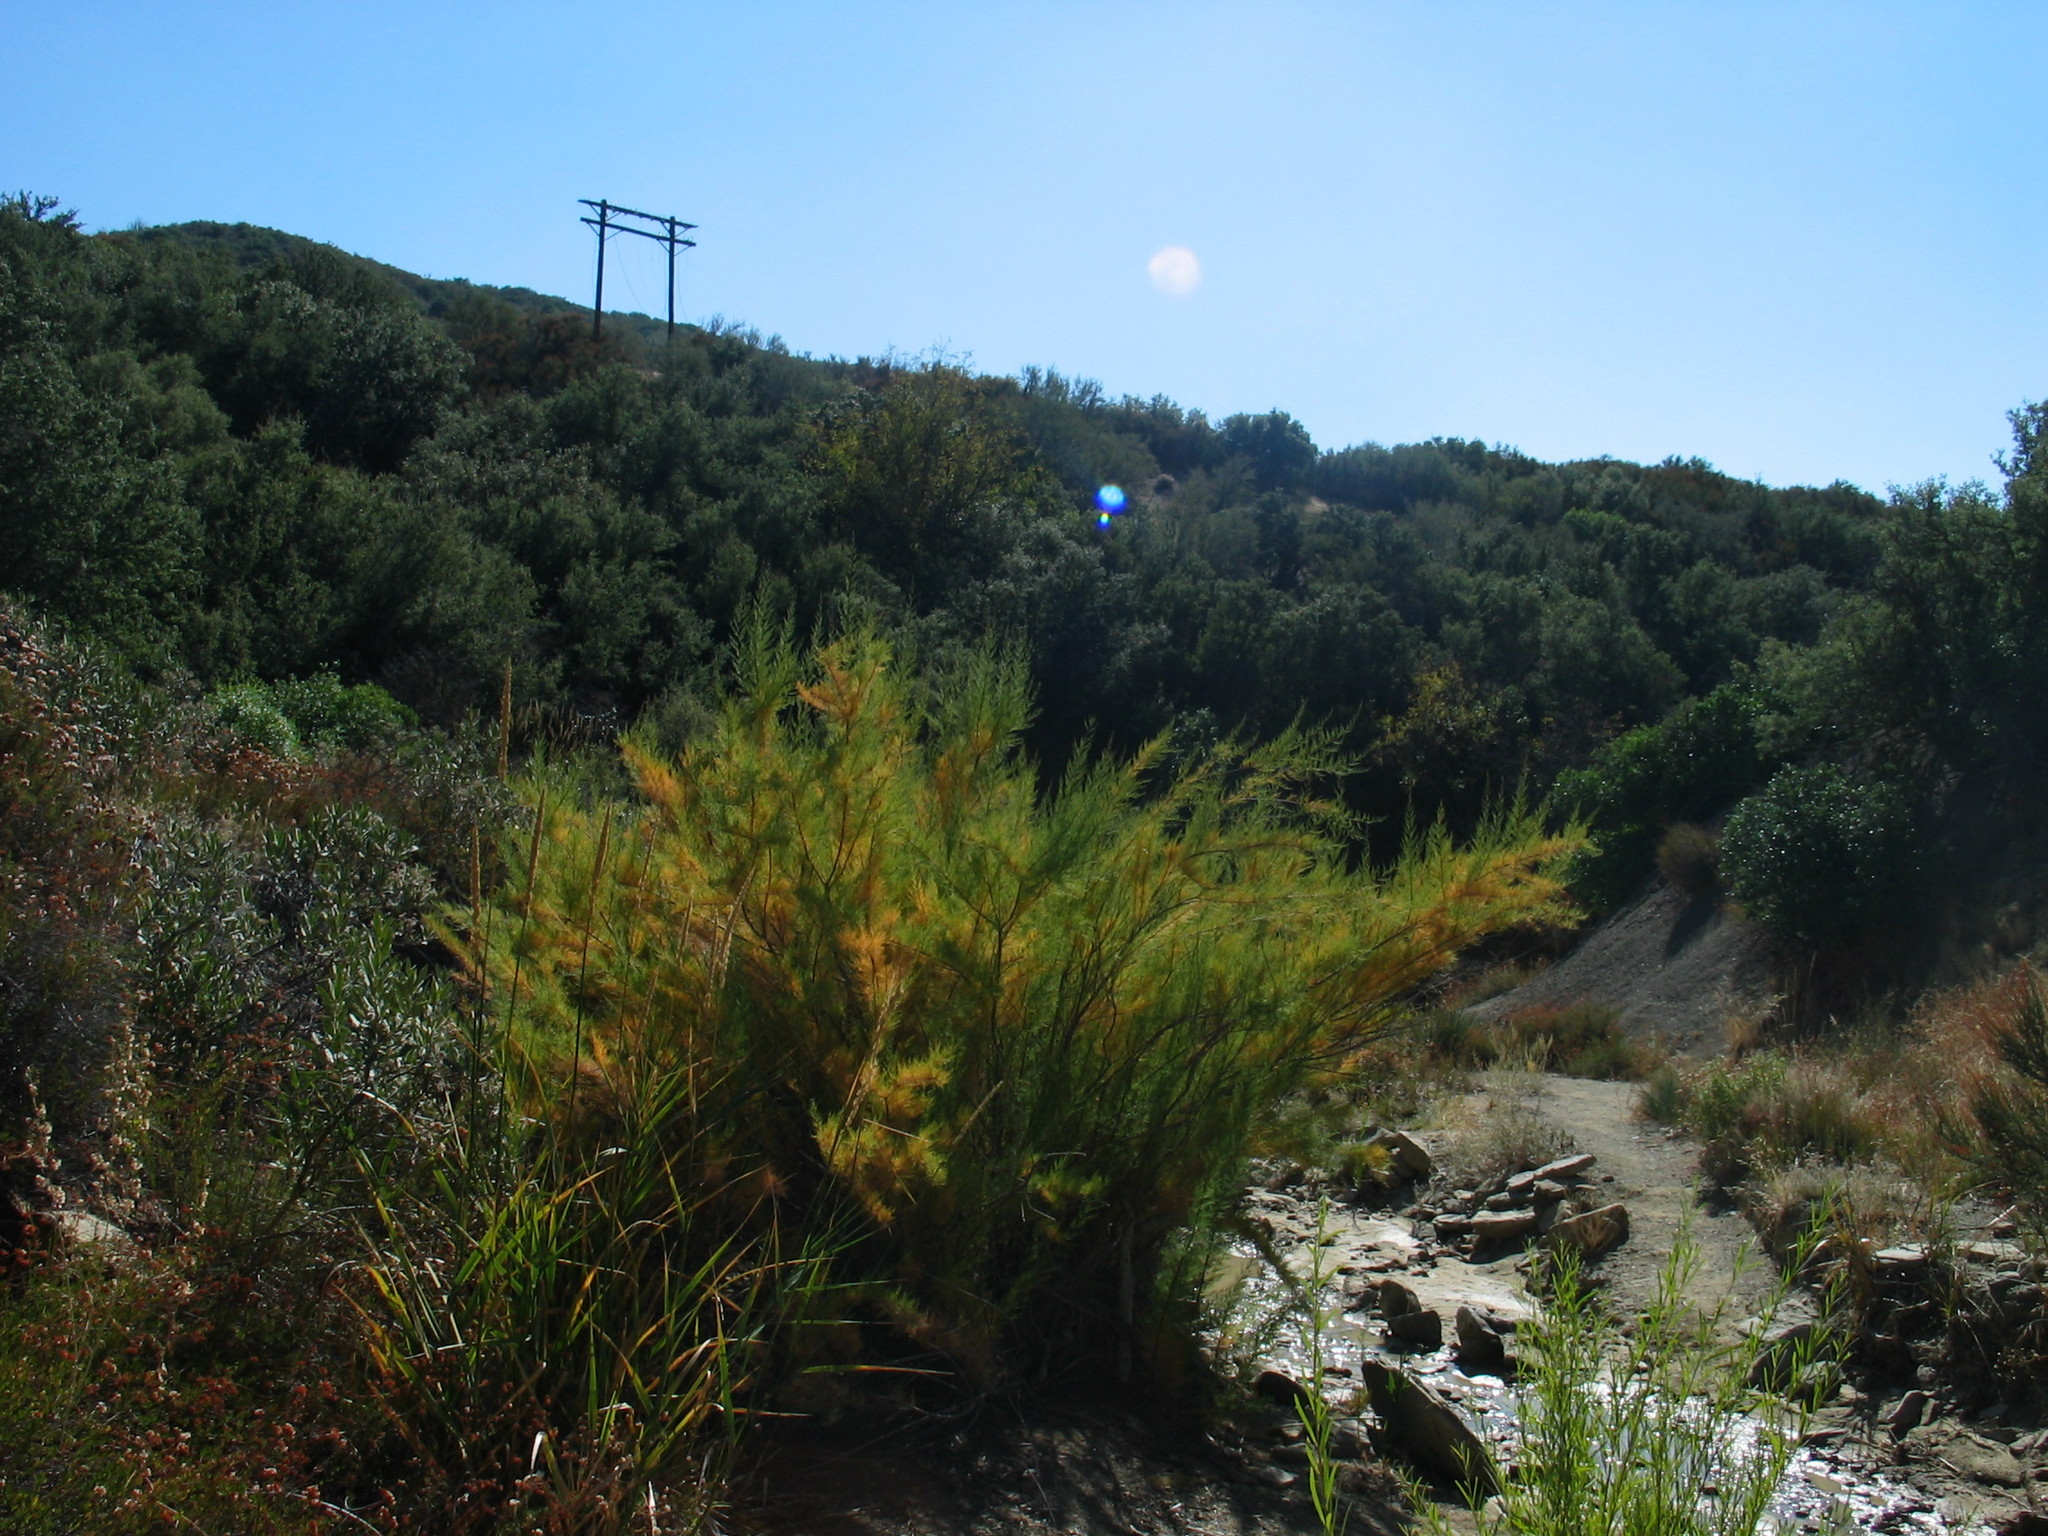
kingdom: Plantae
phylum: Tracheophyta
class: Magnoliopsida
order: Caryophyllales
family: Tamaricaceae
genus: Tamarix
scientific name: Tamarix
